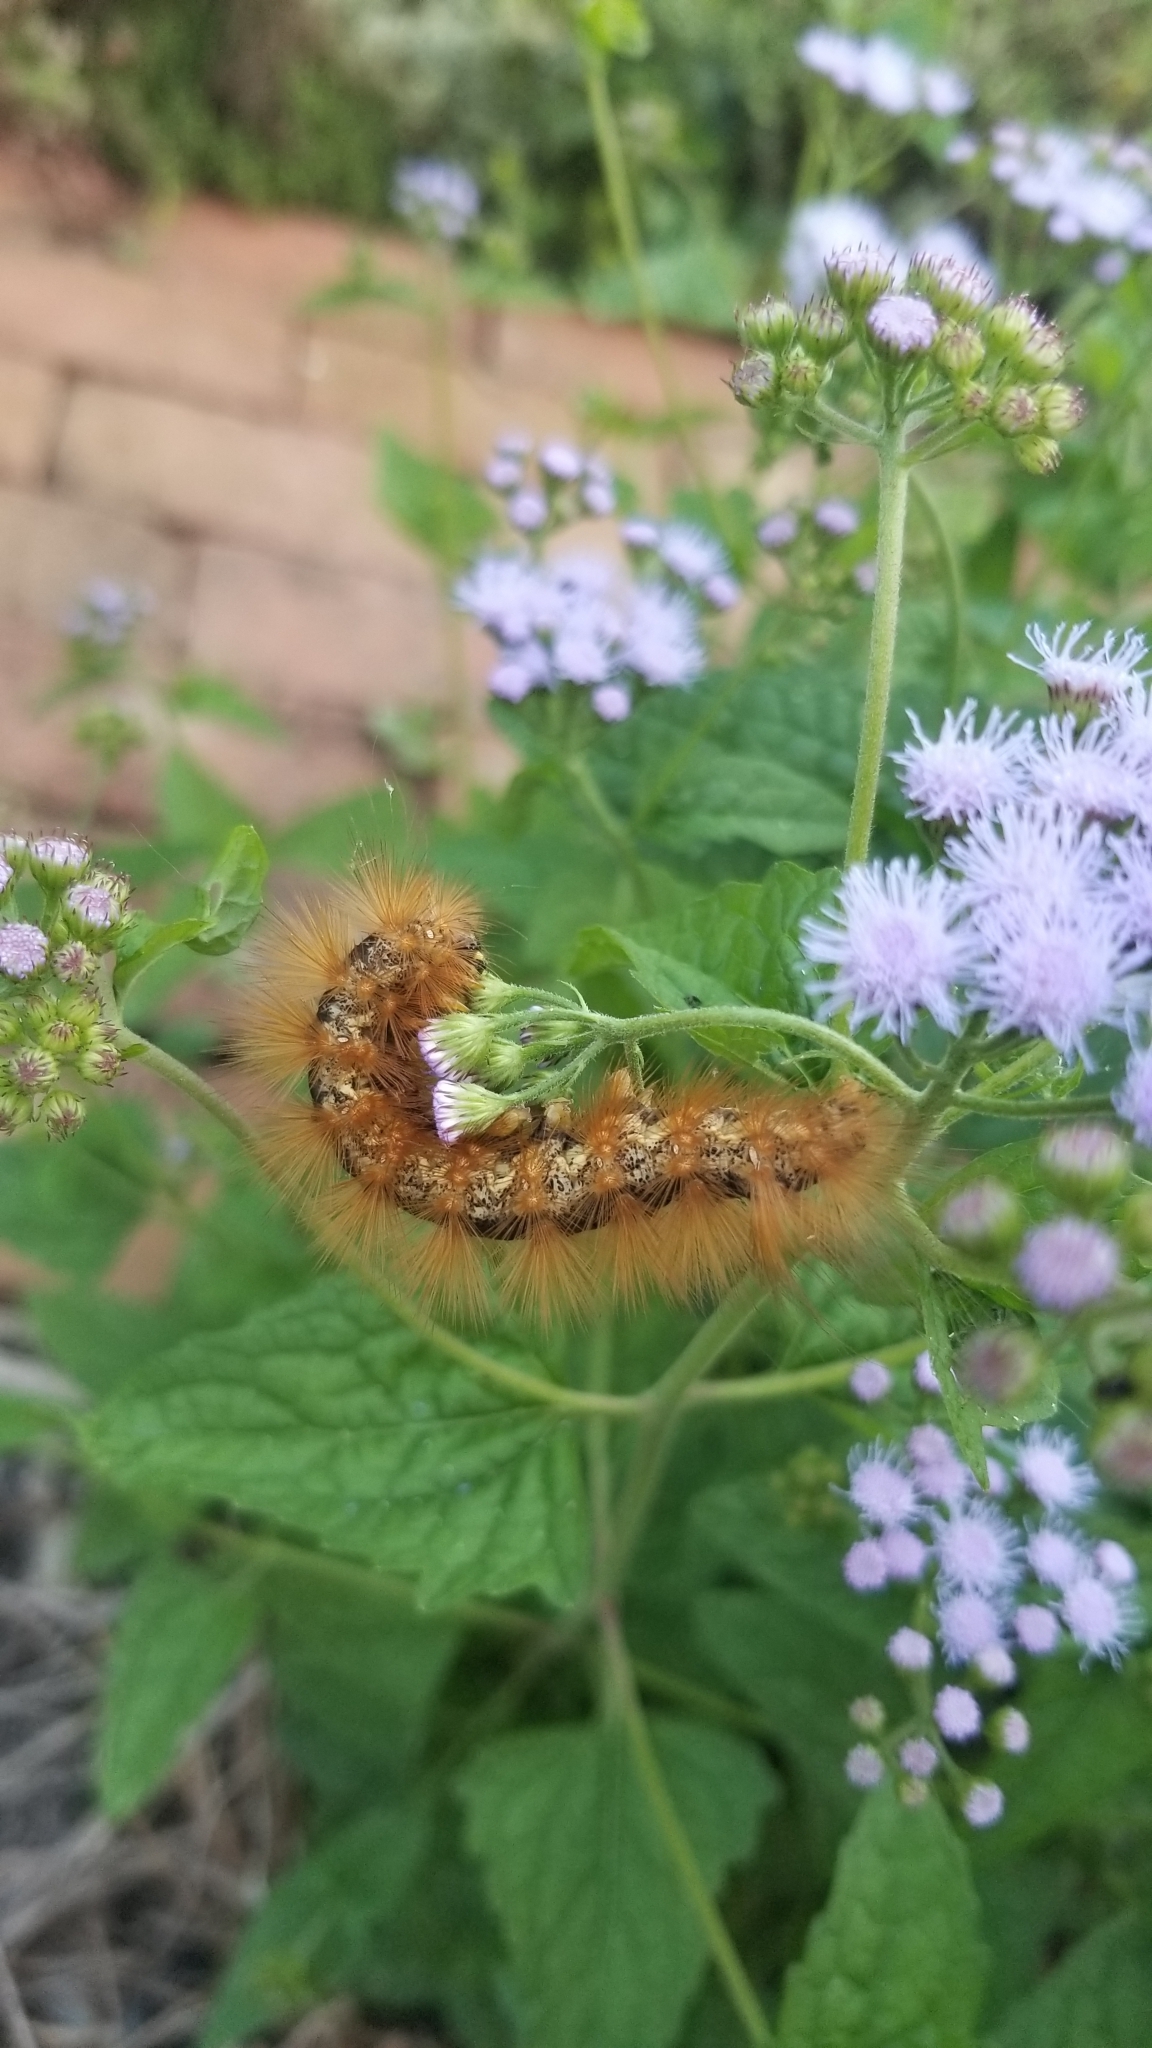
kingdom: Animalia
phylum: Arthropoda
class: Insecta
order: Lepidoptera
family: Erebidae
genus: Estigmene
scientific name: Estigmene acrea
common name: Salt marsh moth
